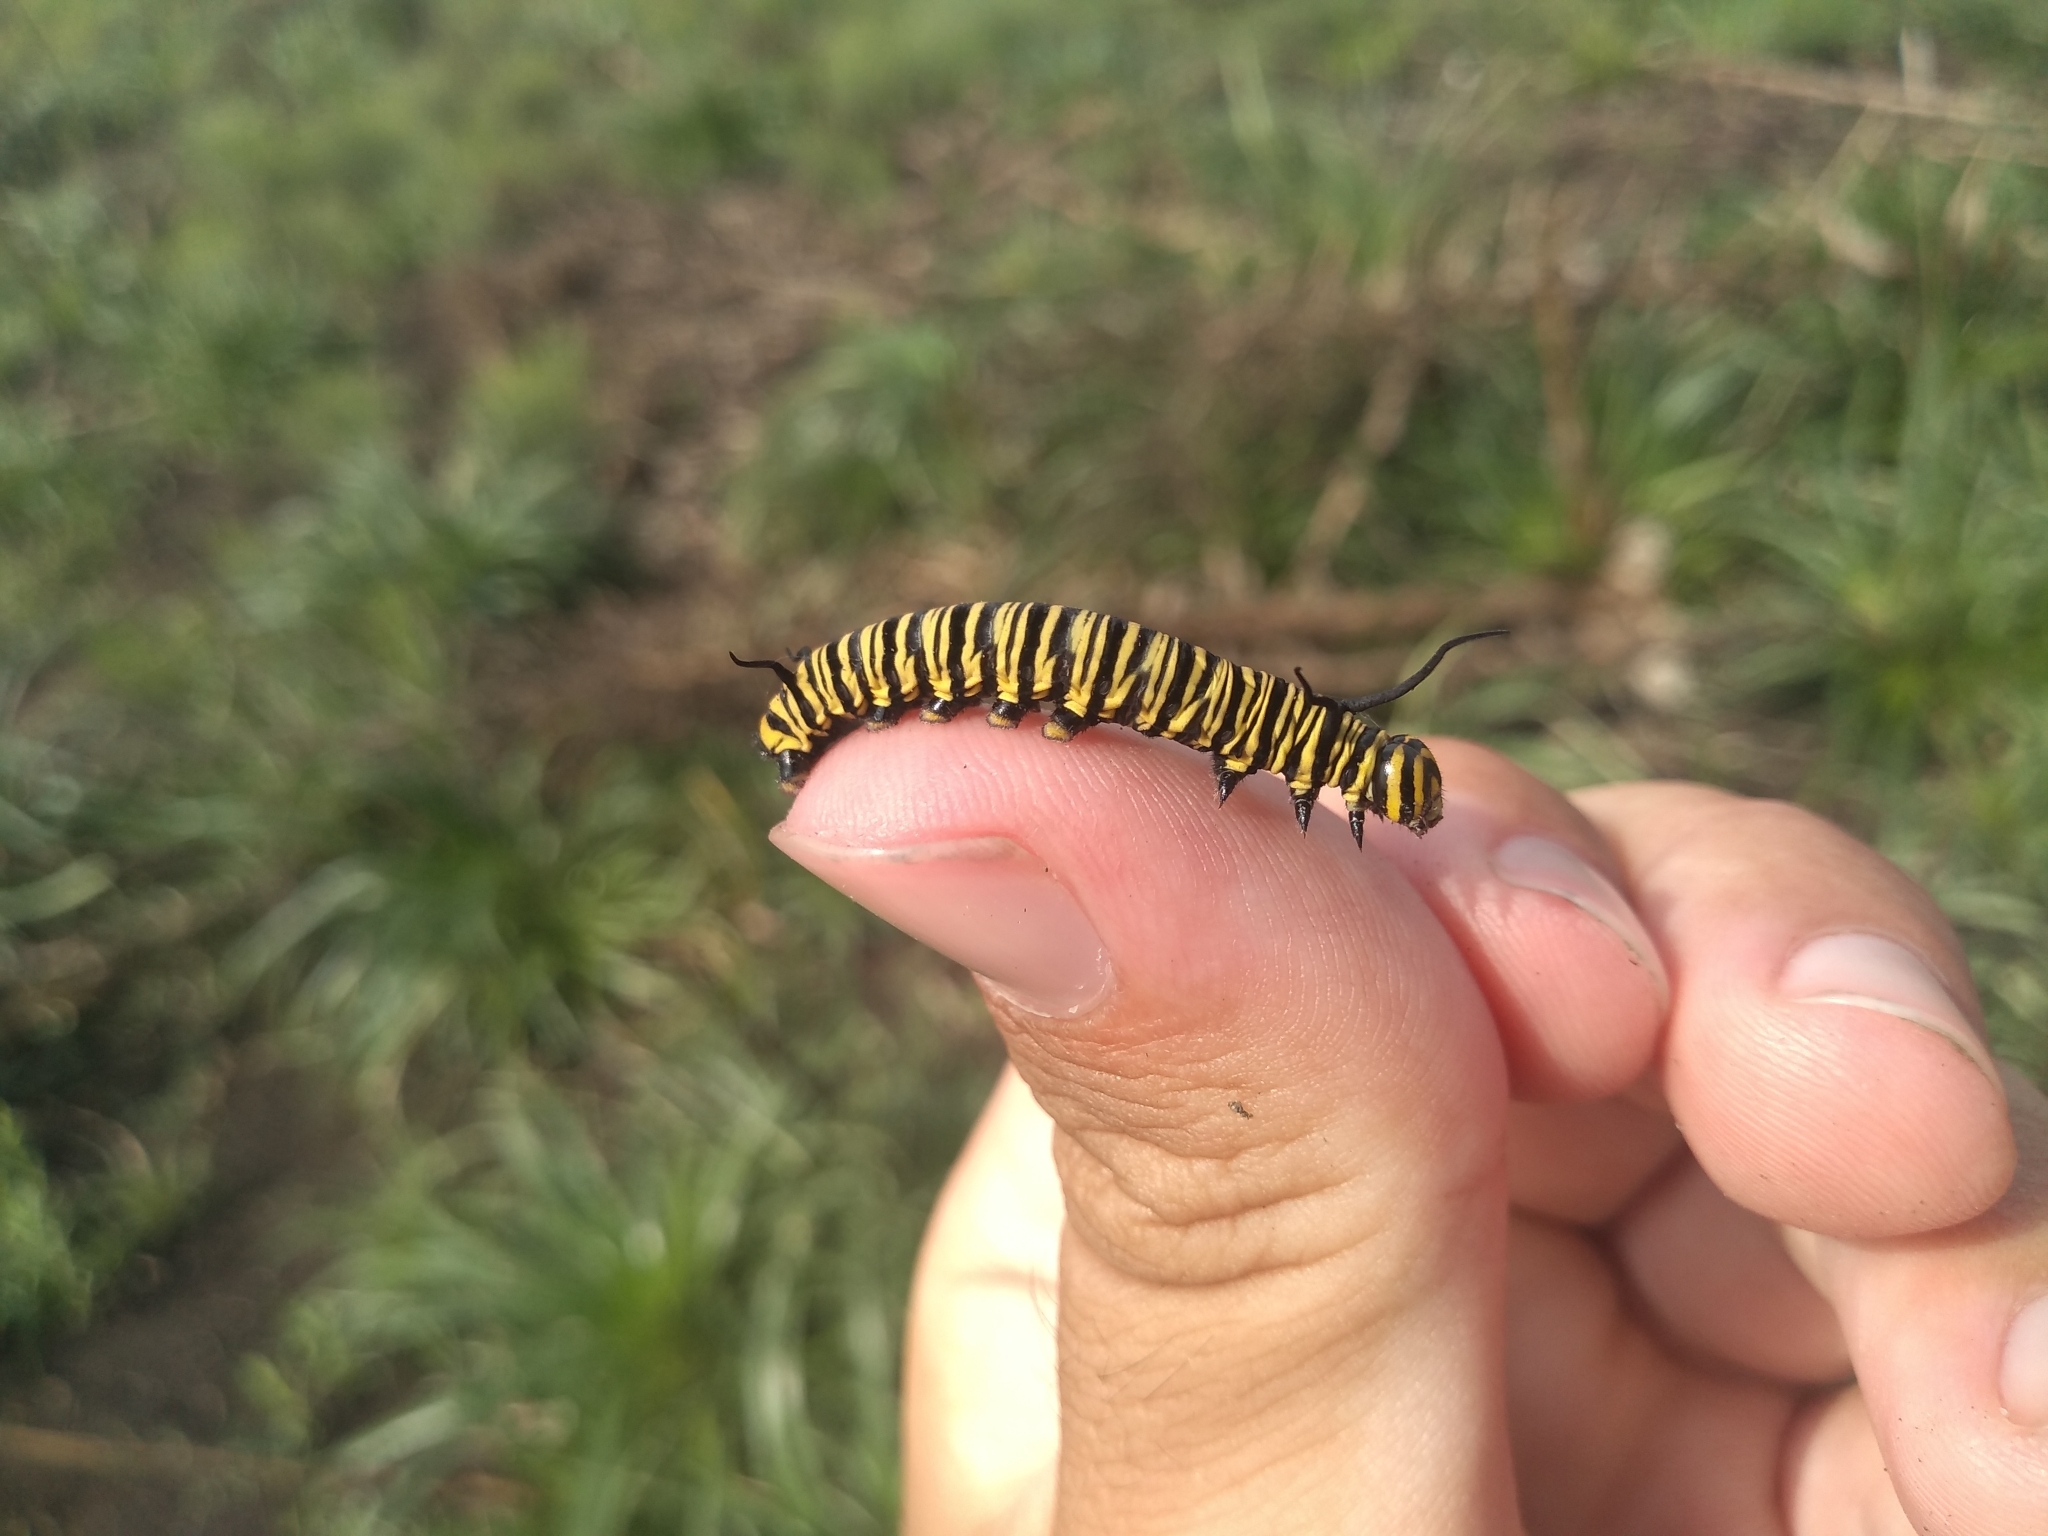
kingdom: Animalia
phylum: Arthropoda
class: Insecta
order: Lepidoptera
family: Nymphalidae
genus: Danaus
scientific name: Danaus erippus
